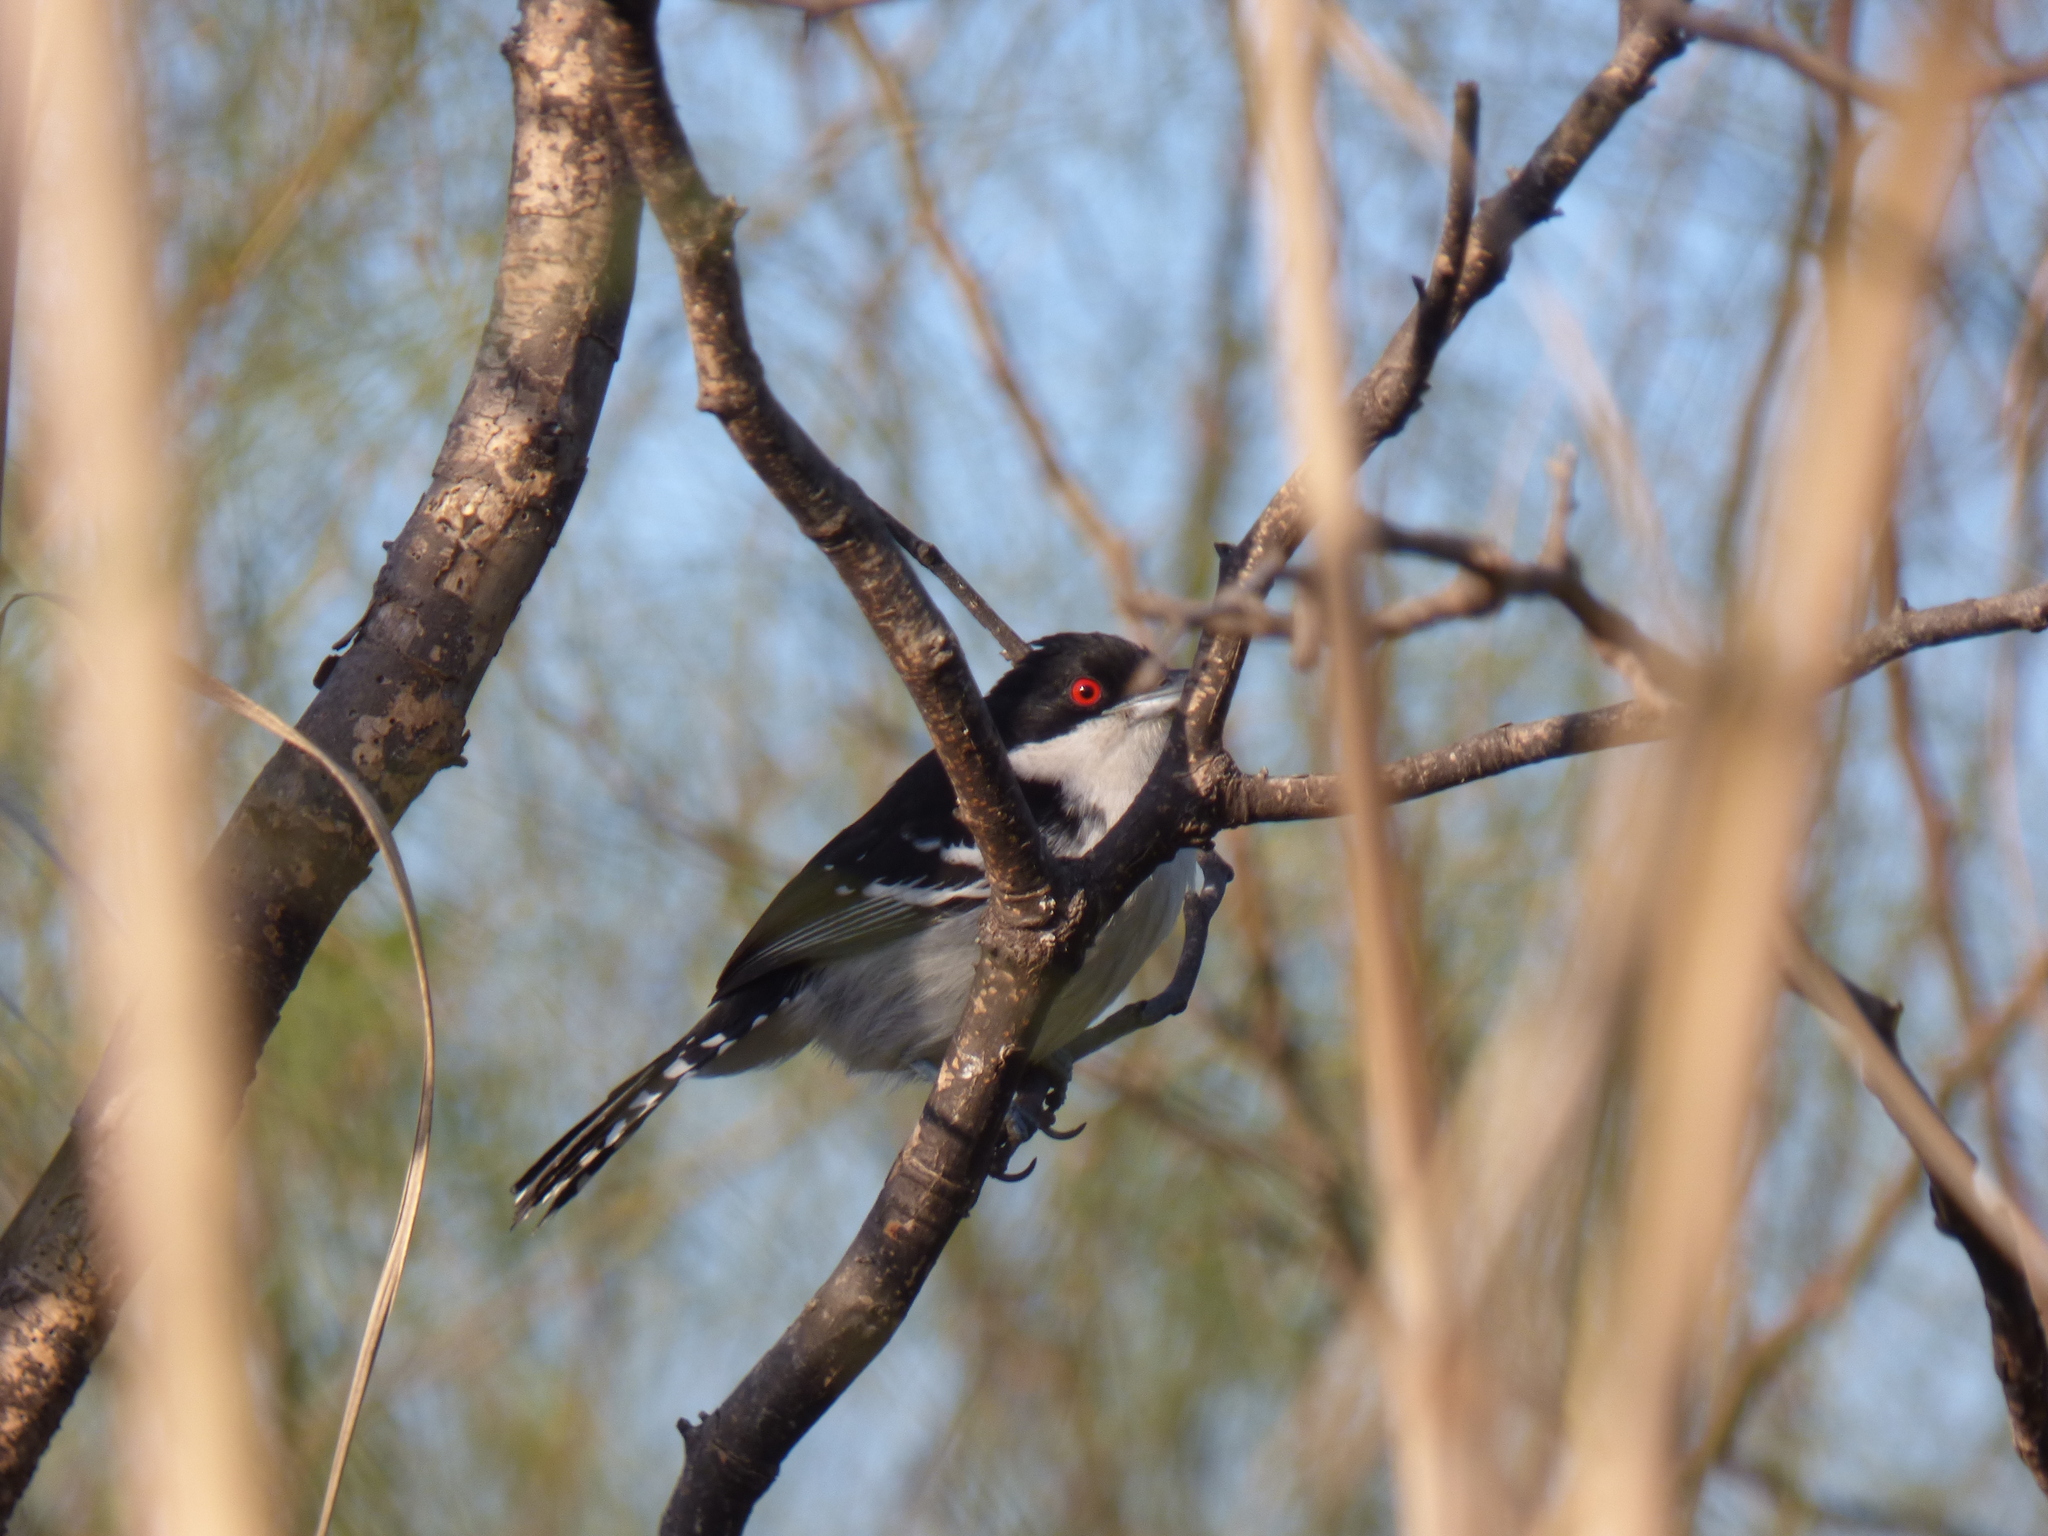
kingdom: Animalia
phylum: Chordata
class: Aves
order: Passeriformes
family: Thamnophilidae
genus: Taraba
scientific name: Taraba major
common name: Great antshrike
